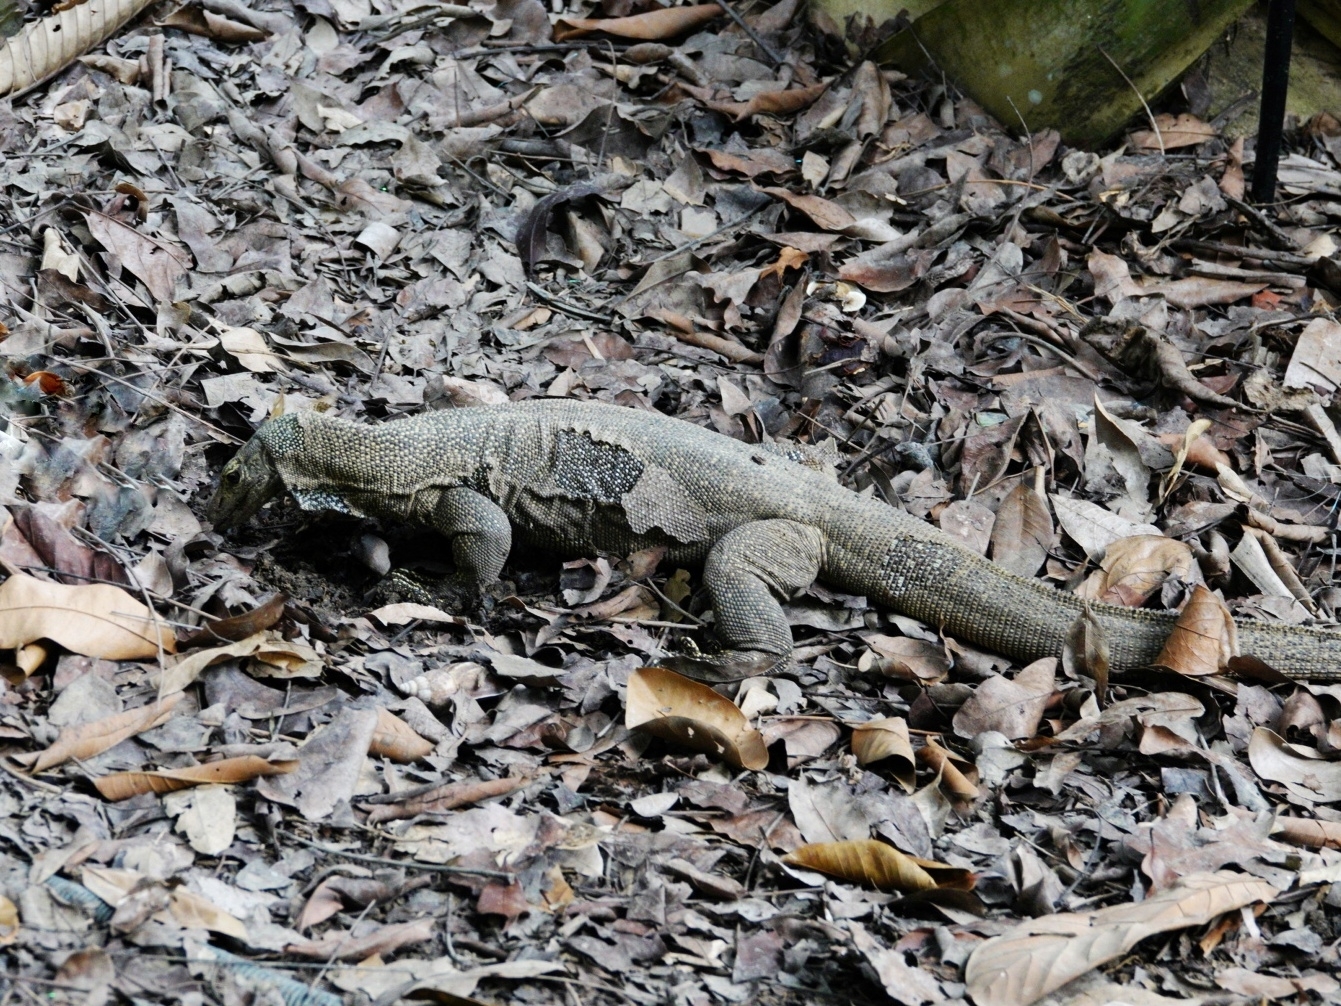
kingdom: Animalia
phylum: Chordata
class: Squamata
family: Varanidae
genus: Varanus
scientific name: Varanus nebulosus
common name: Clouded monitor
